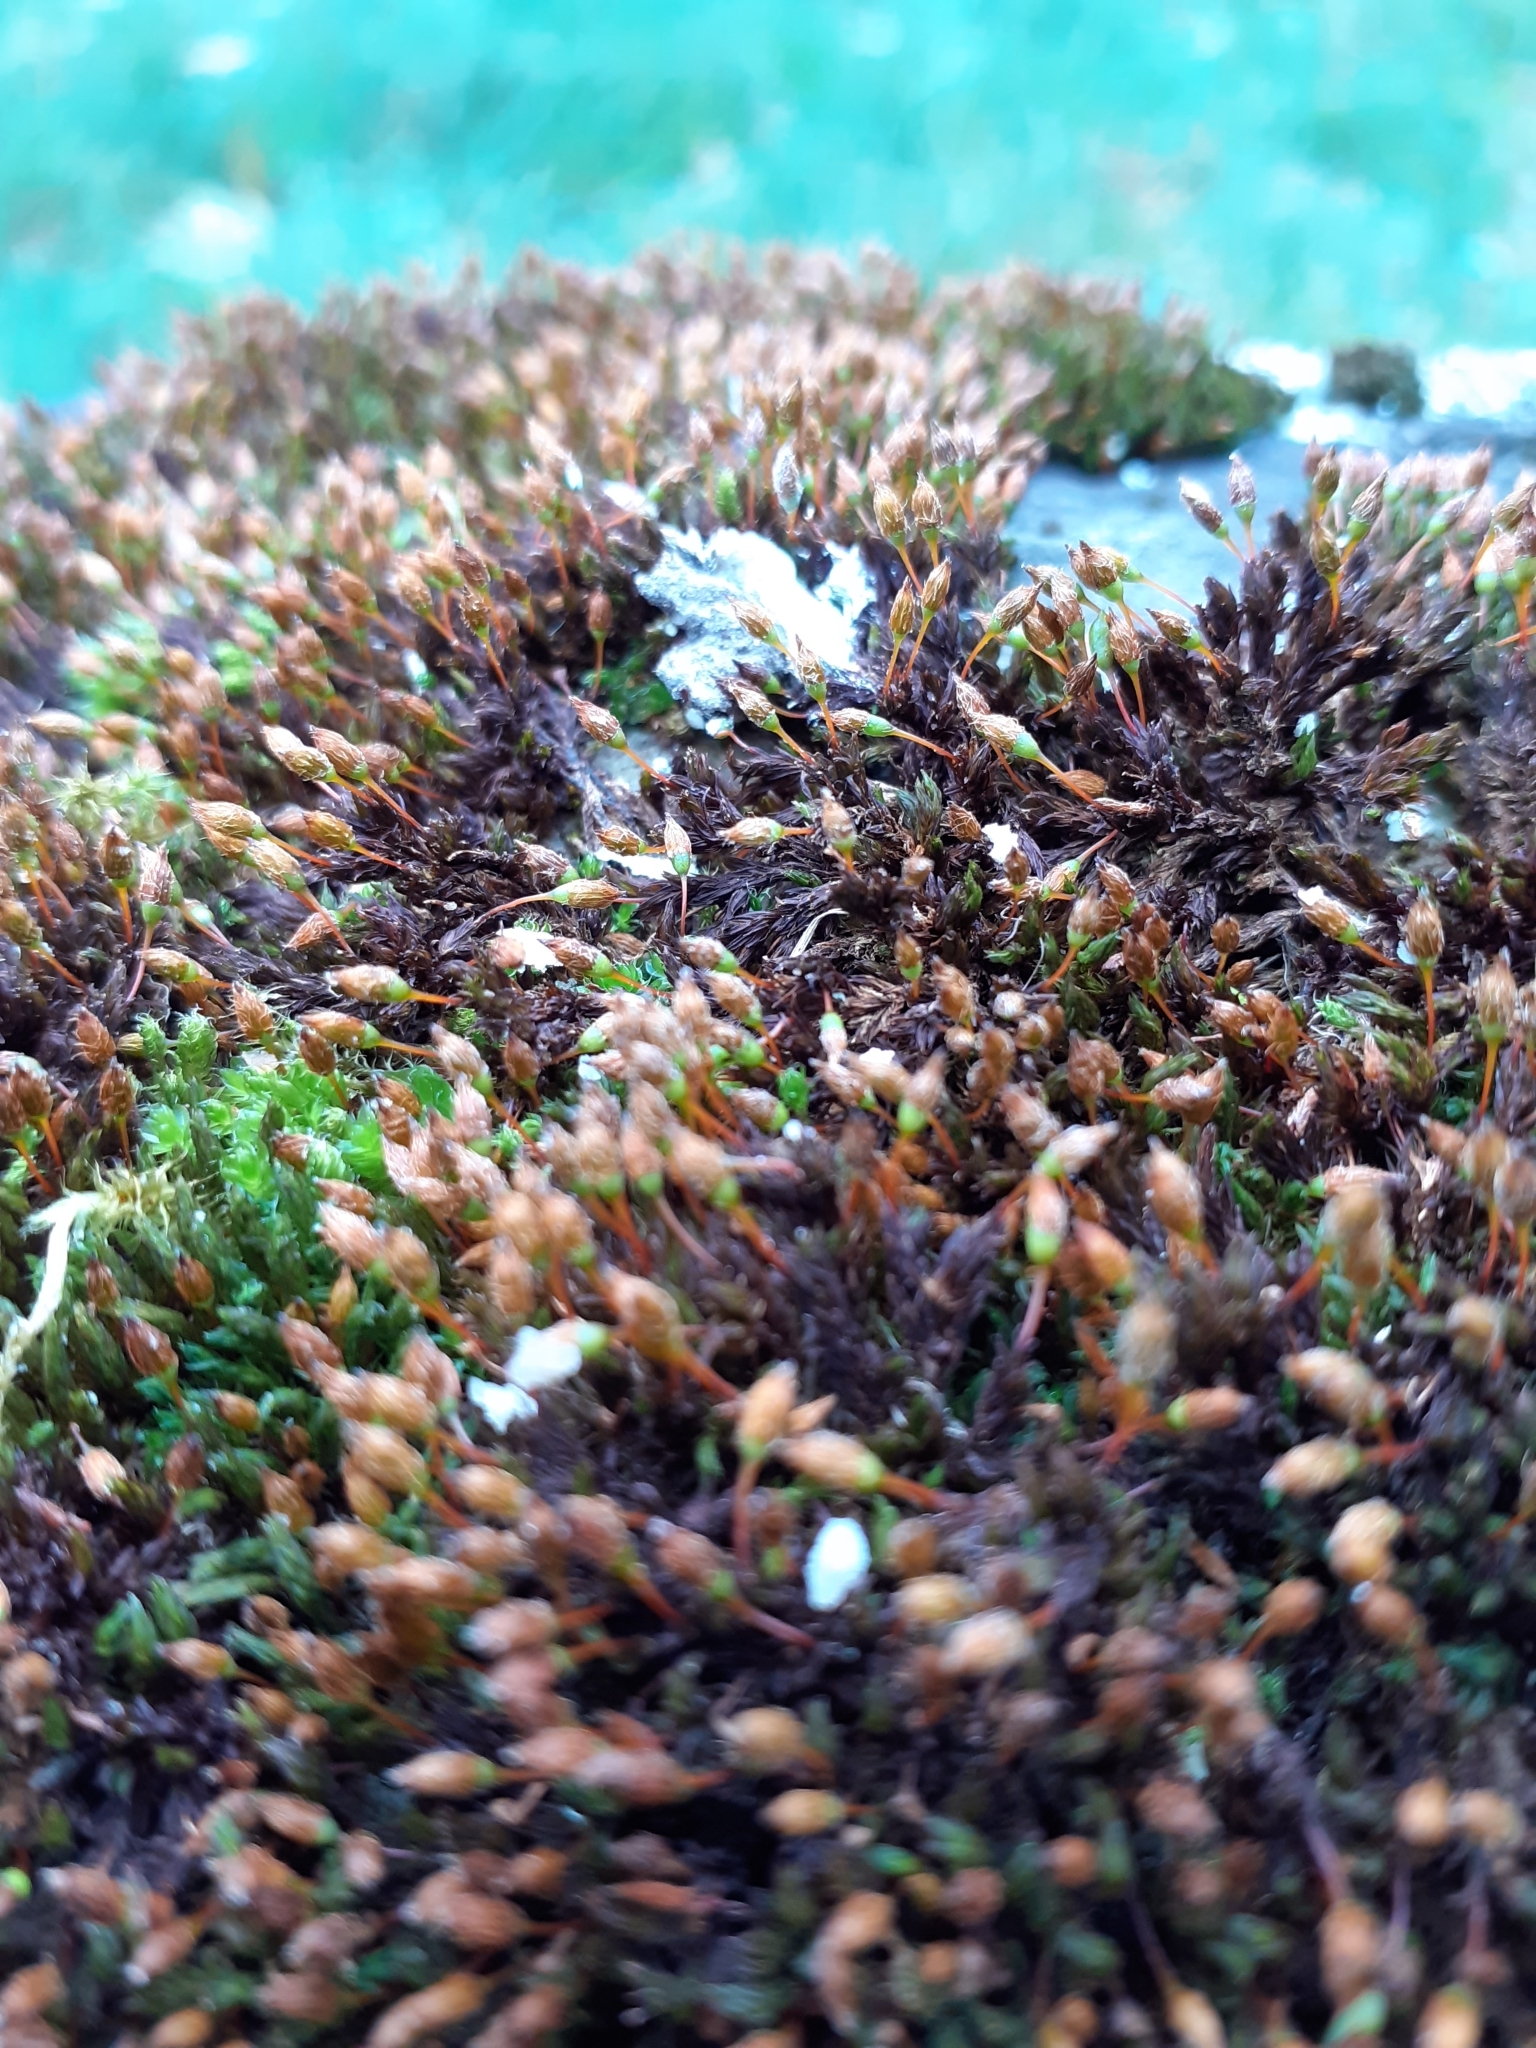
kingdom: Plantae
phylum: Bryophyta
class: Bryopsida
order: Orthotrichales
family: Orthotrichaceae
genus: Orthotrichum
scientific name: Orthotrichum anomalum
